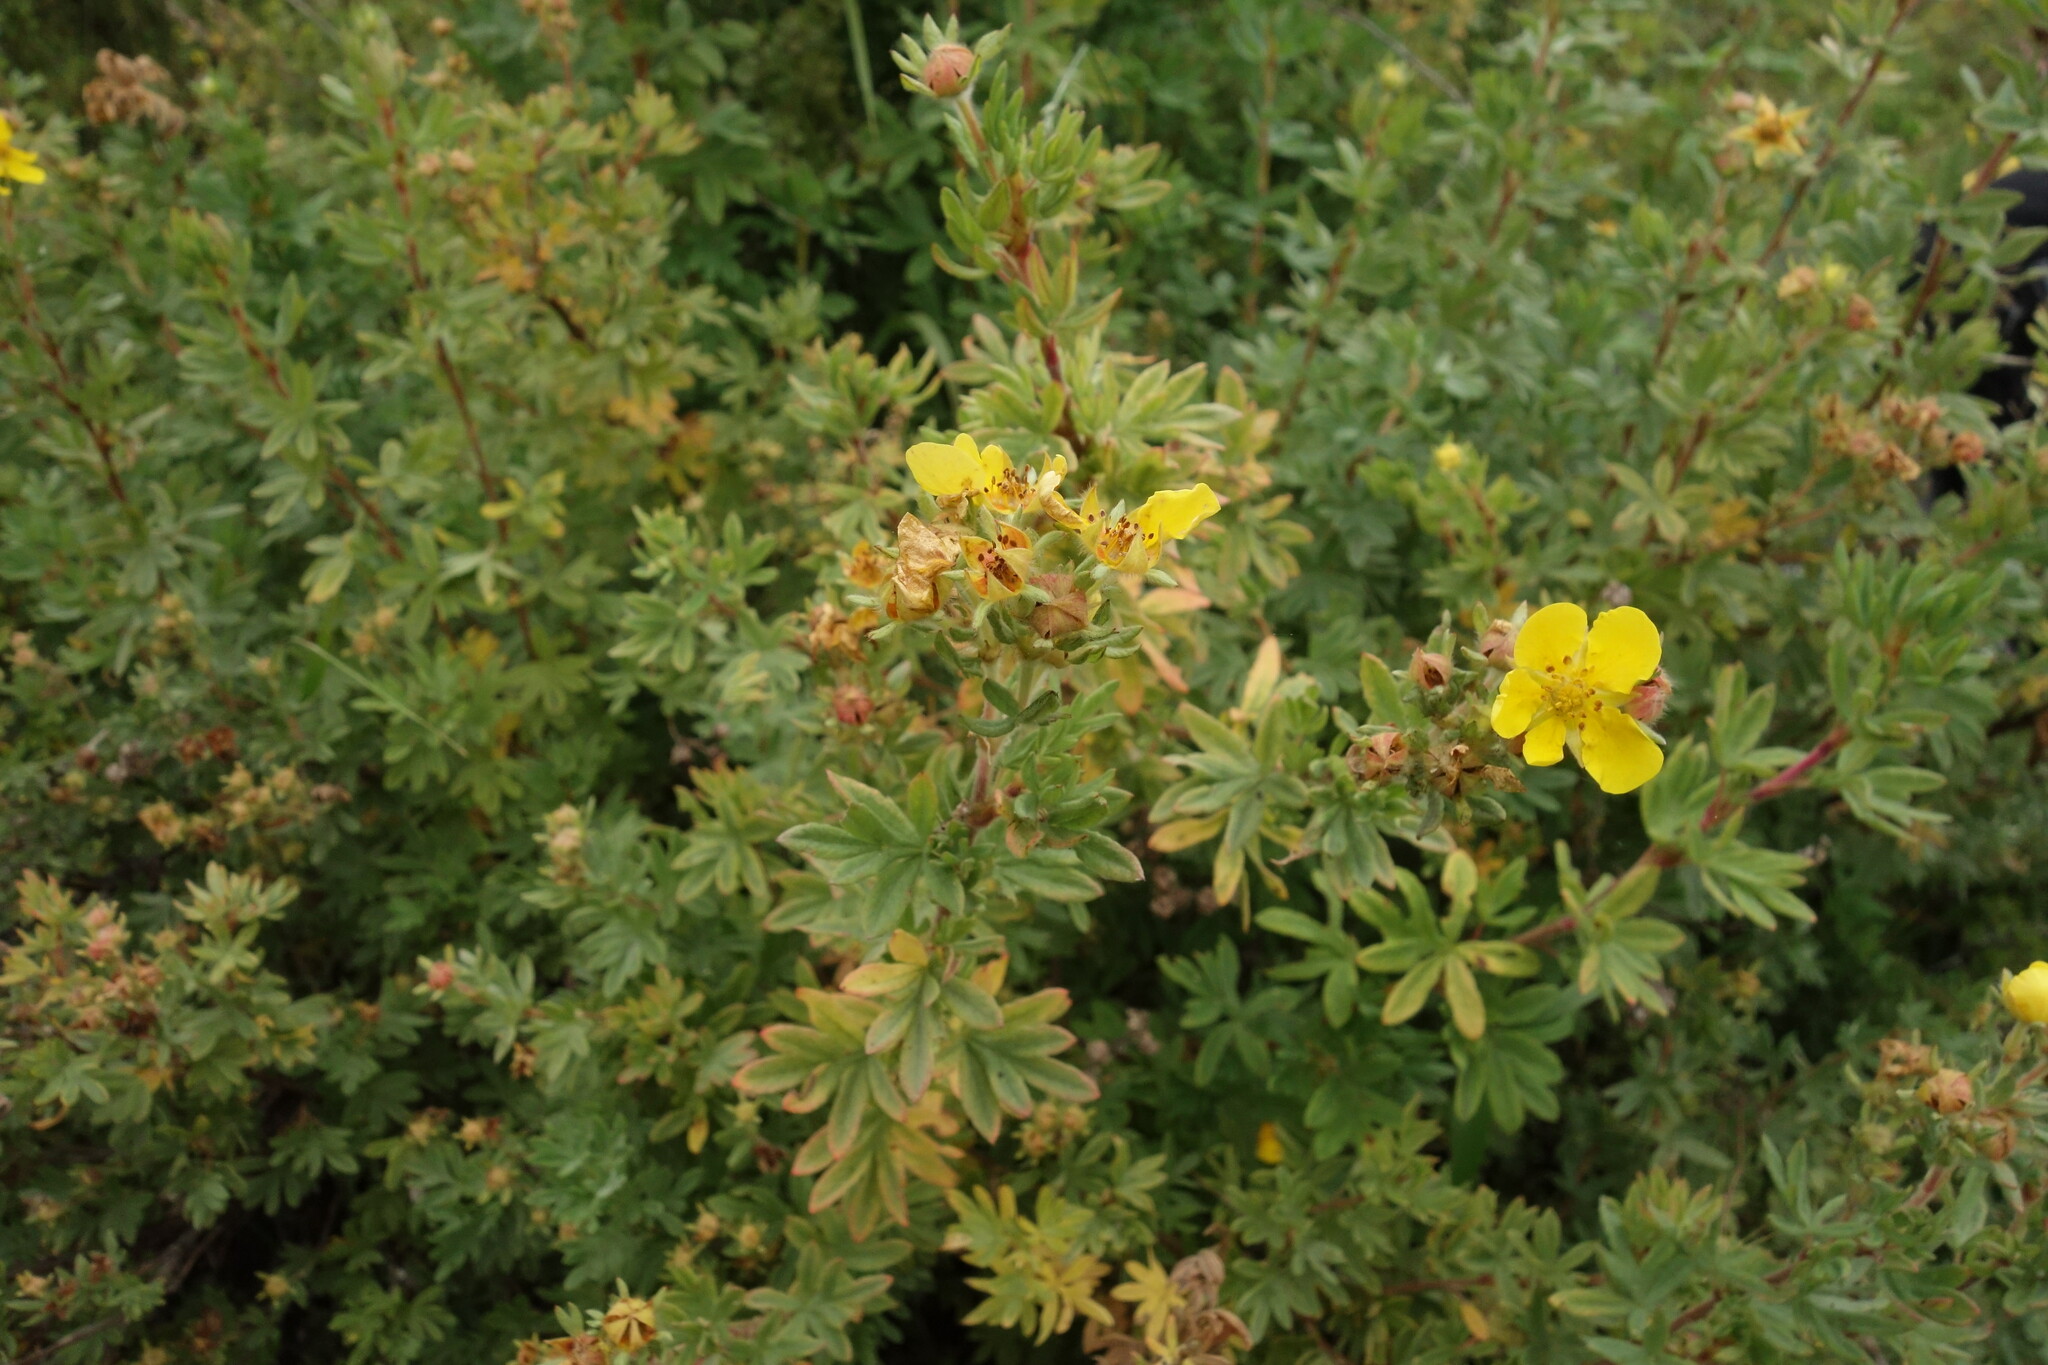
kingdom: Plantae
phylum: Tracheophyta
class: Magnoliopsida
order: Rosales
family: Rosaceae
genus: Dasiphora
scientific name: Dasiphora fruticosa
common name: Shrubby cinquefoil
